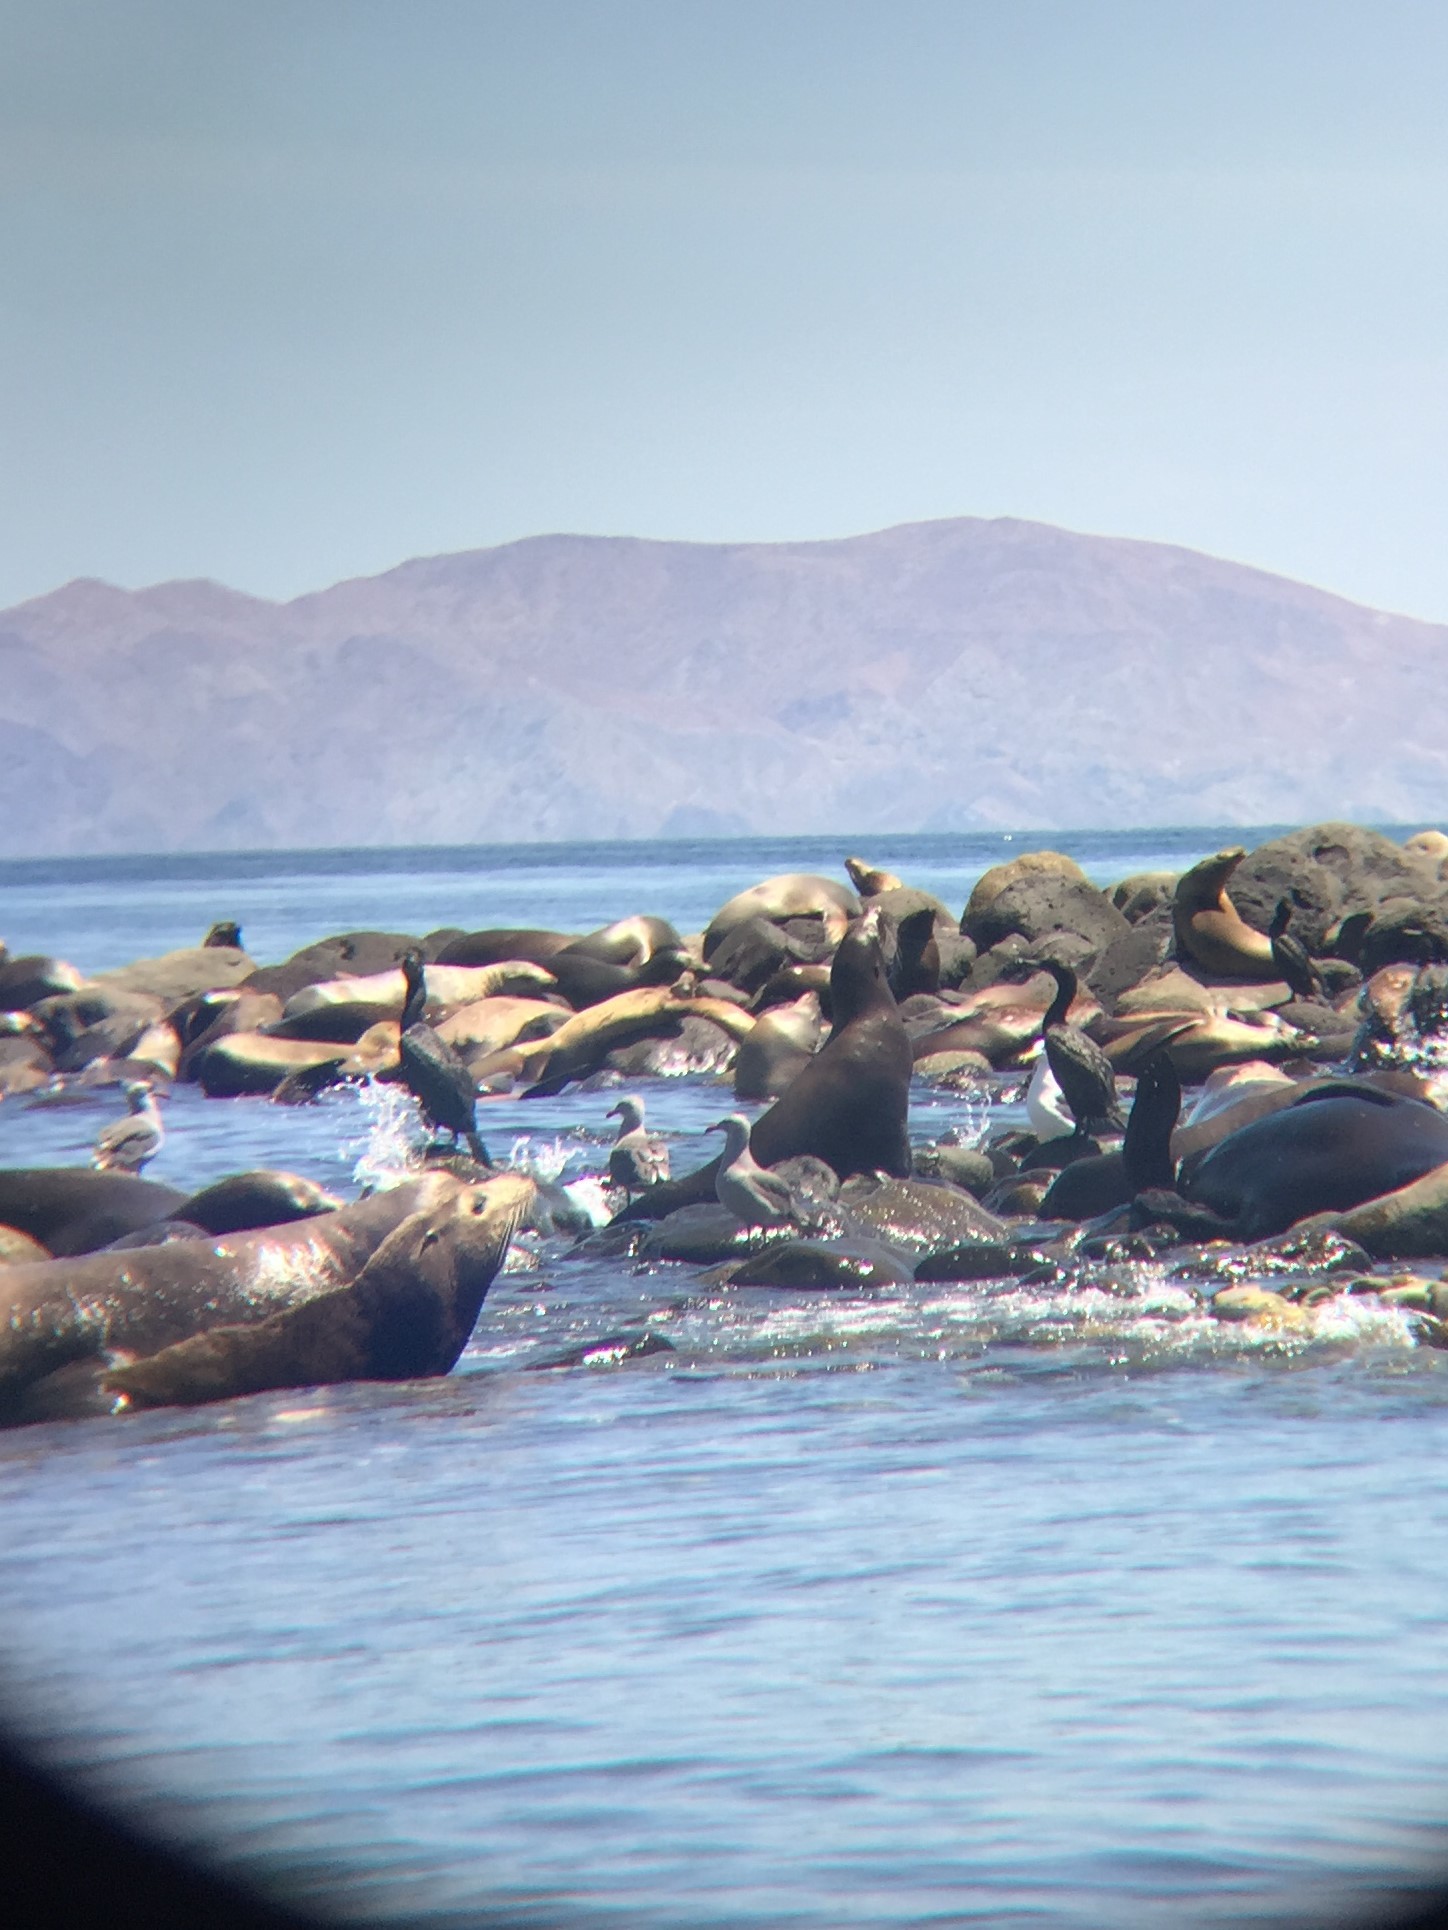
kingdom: Animalia
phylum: Chordata
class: Mammalia
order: Carnivora
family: Otariidae
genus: Zalophus
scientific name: Zalophus californianus
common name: California sea lion
